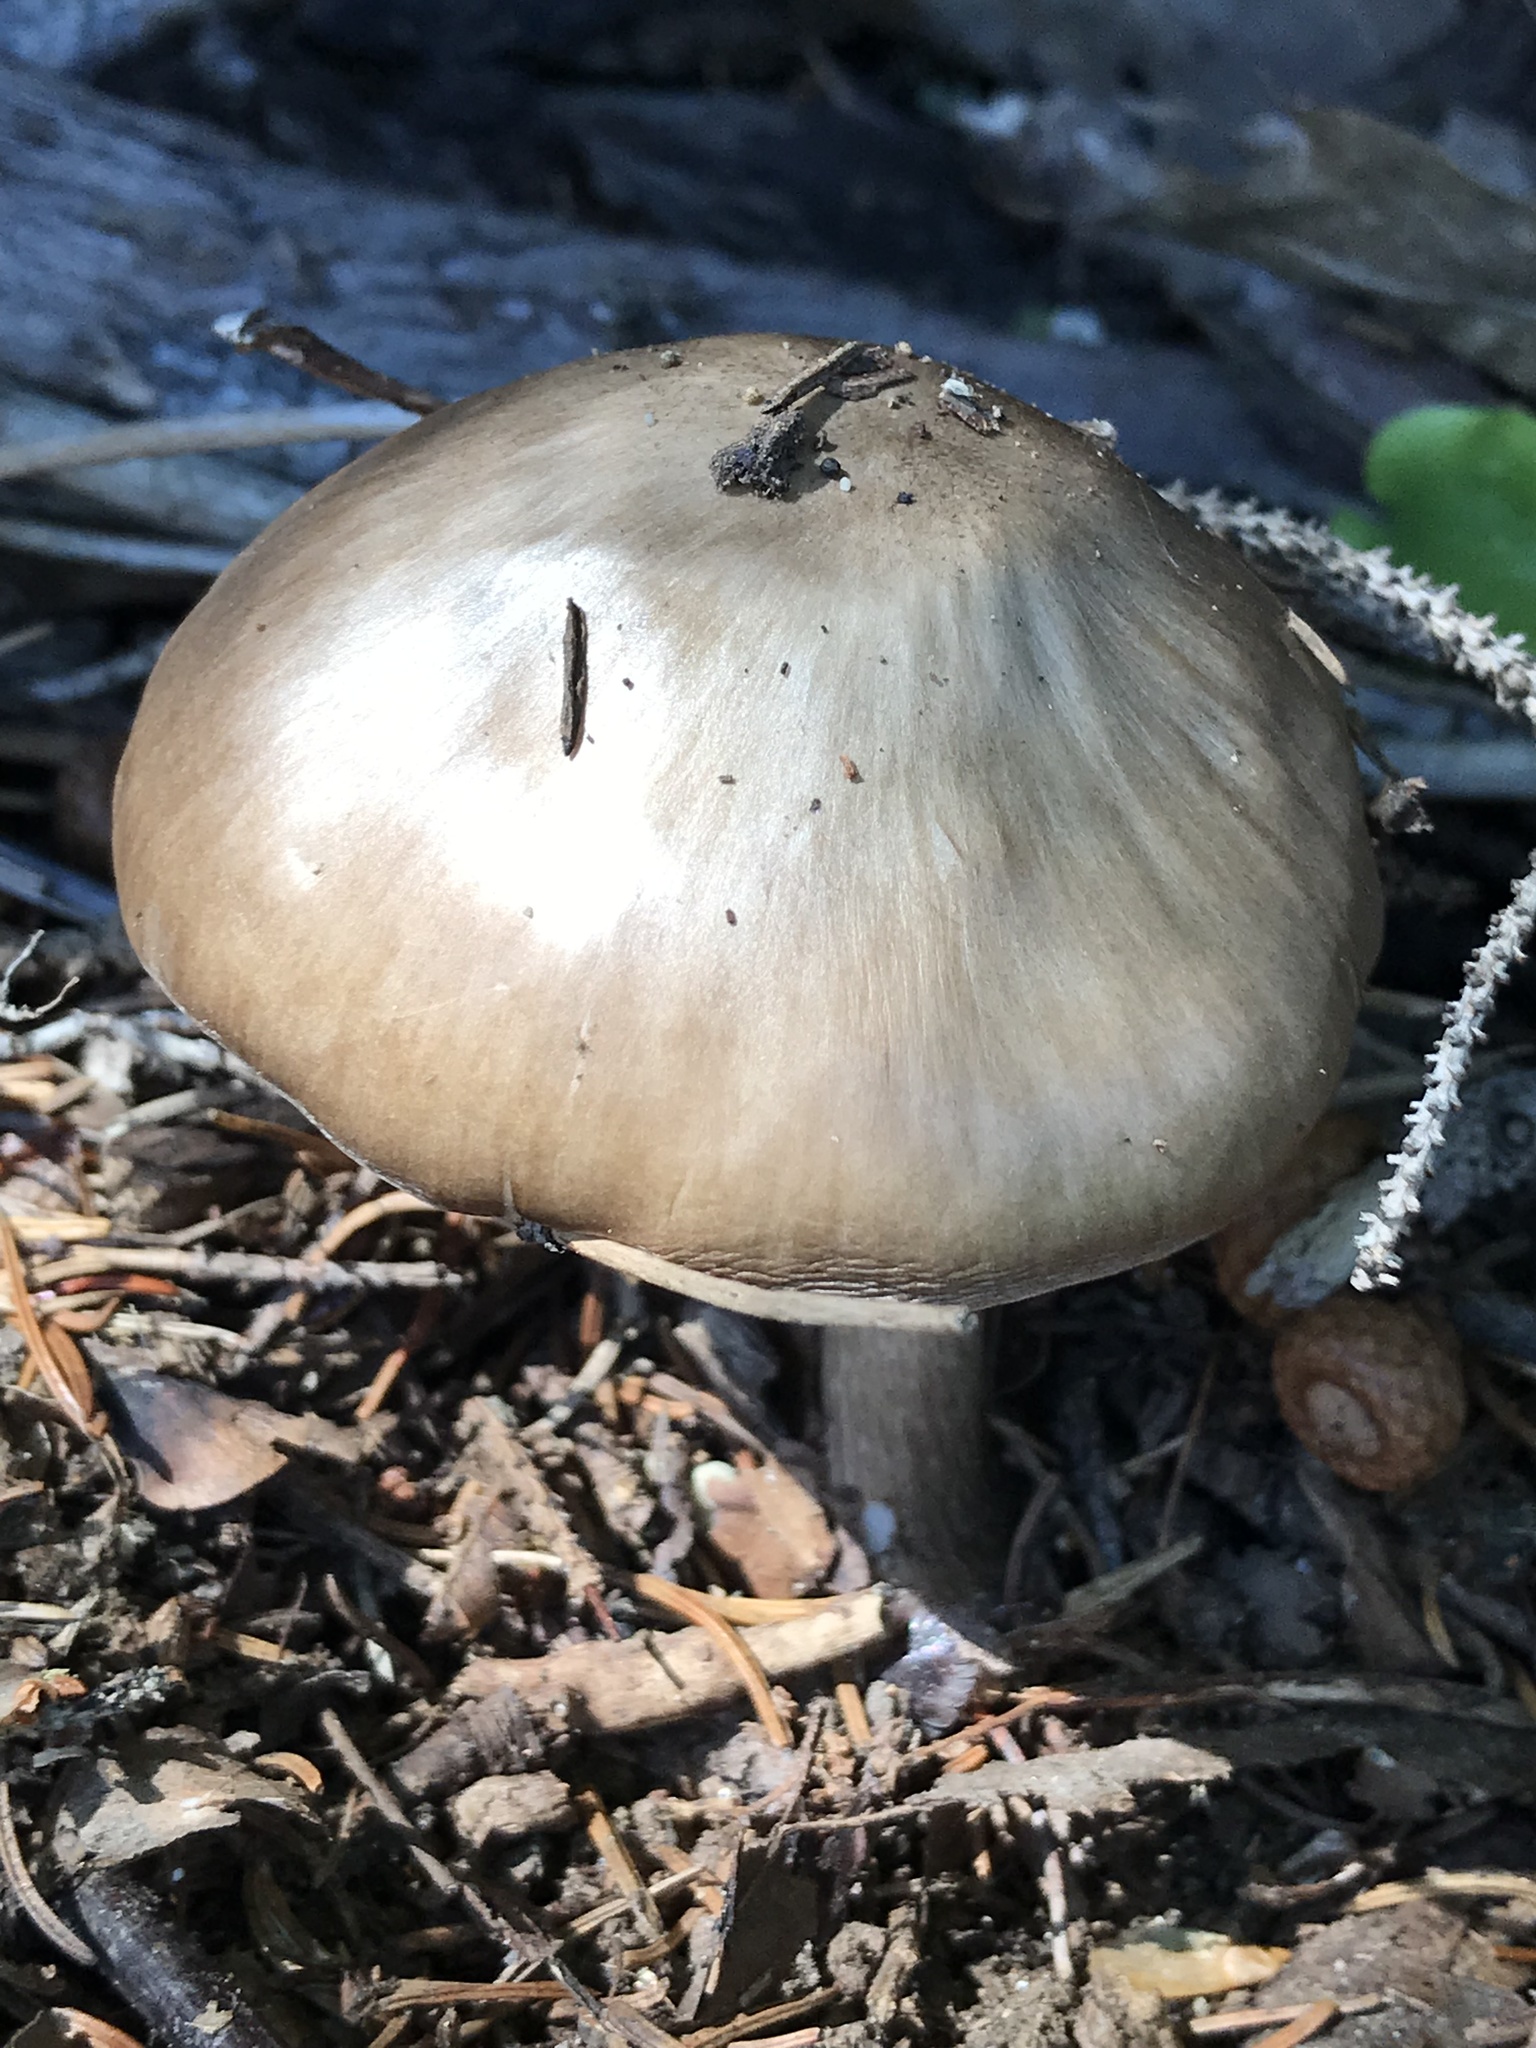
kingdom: Fungi
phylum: Basidiomycota
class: Agaricomycetes
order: Agaricales
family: Pluteaceae
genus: Pluteus
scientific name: Pluteus cervinus
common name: Deer shield
